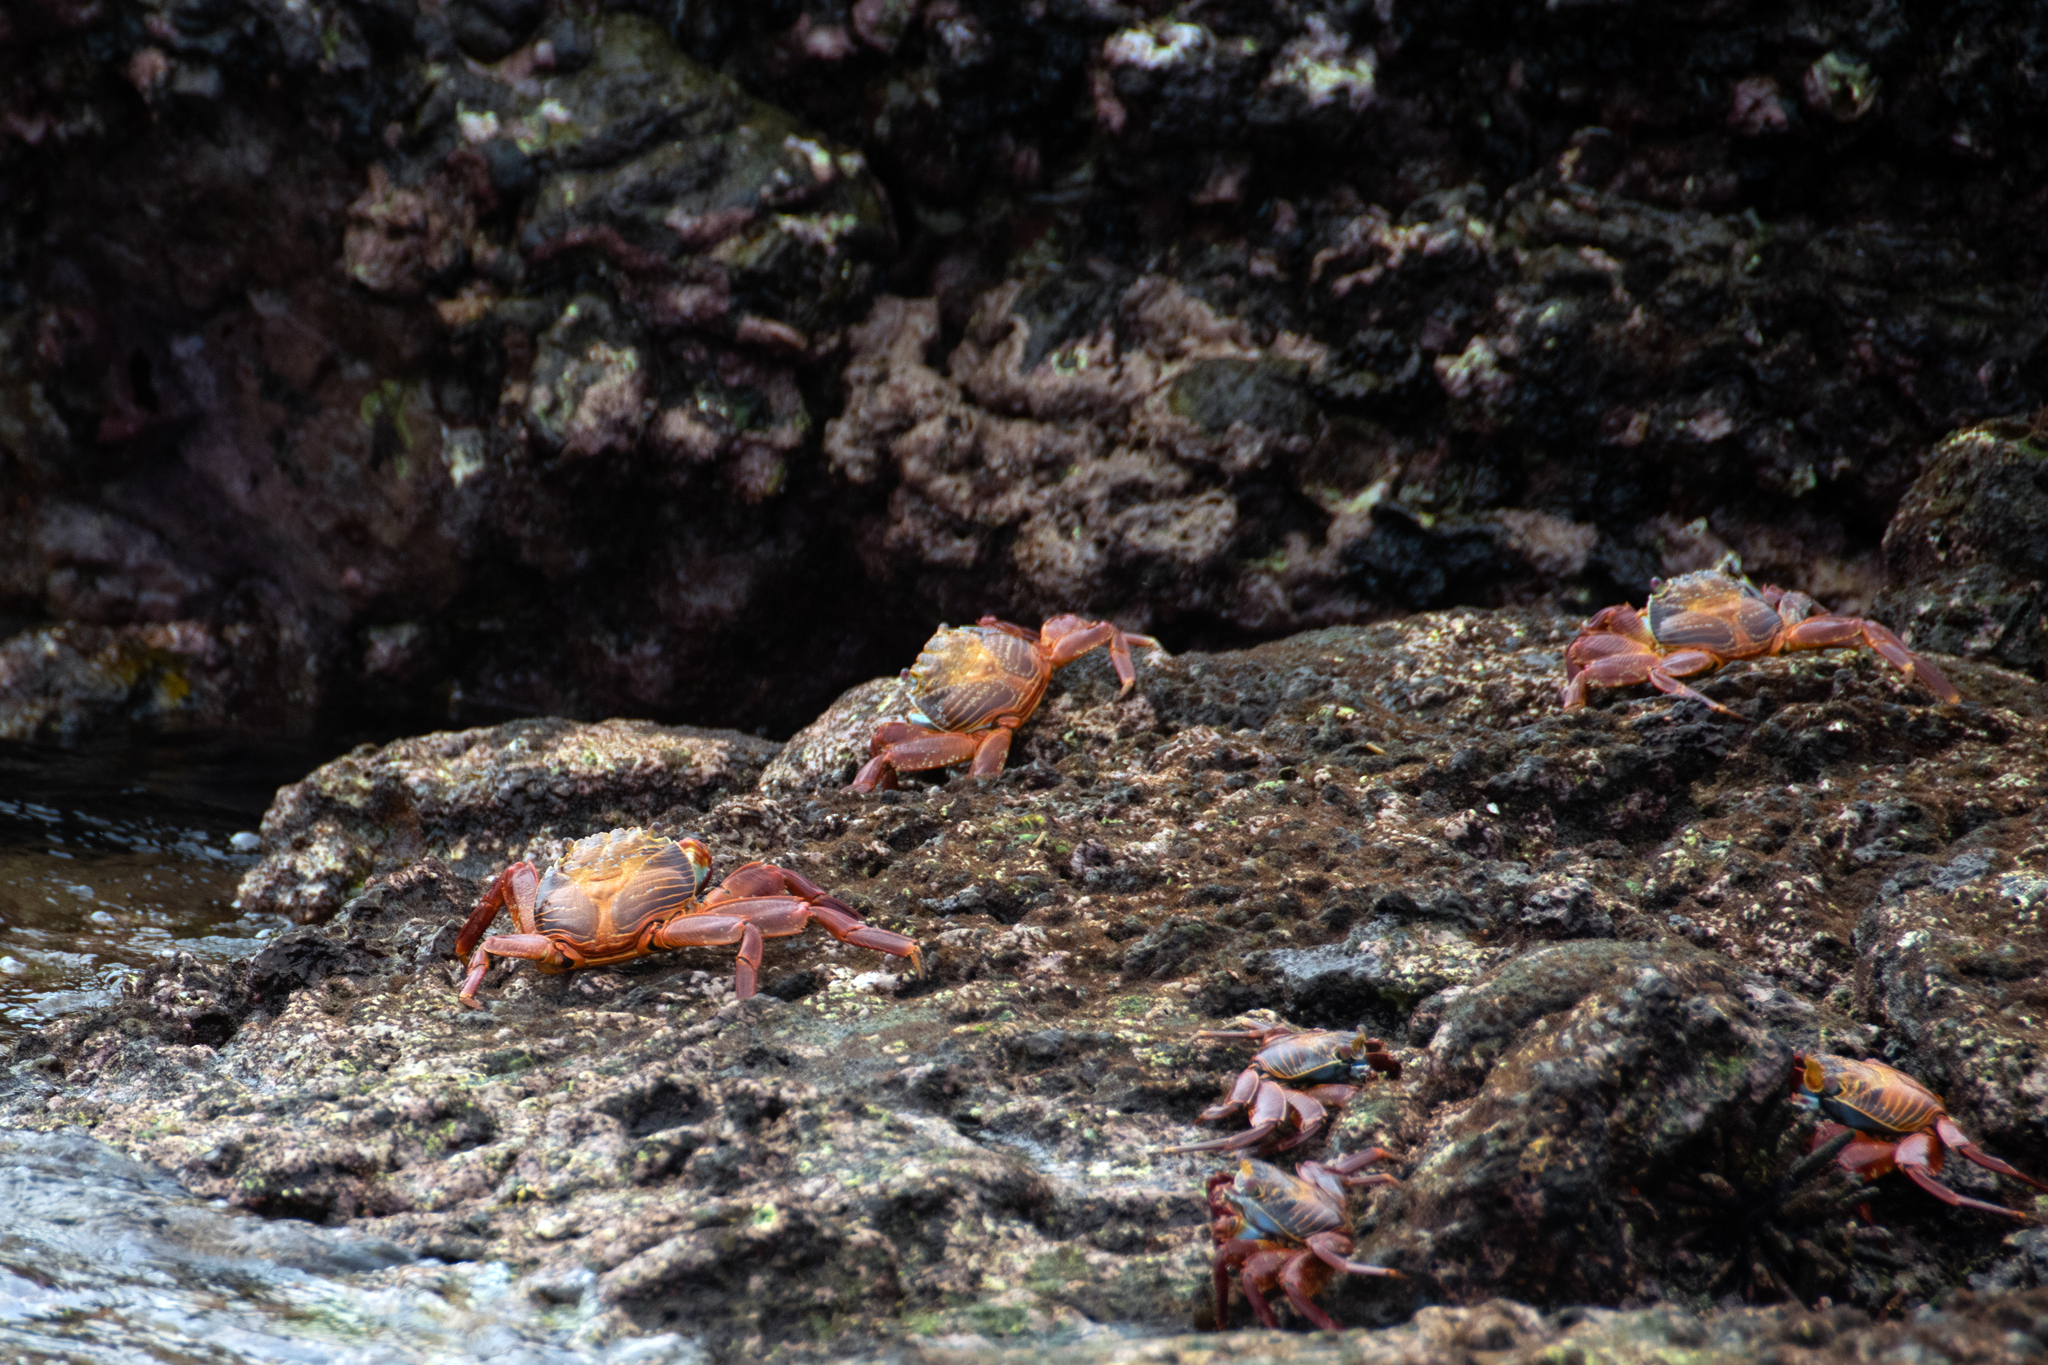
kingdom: Animalia
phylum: Arthropoda
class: Malacostraca
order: Decapoda
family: Grapsidae
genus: Grapsus
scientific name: Grapsus grapsus
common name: Sally lightfoot
